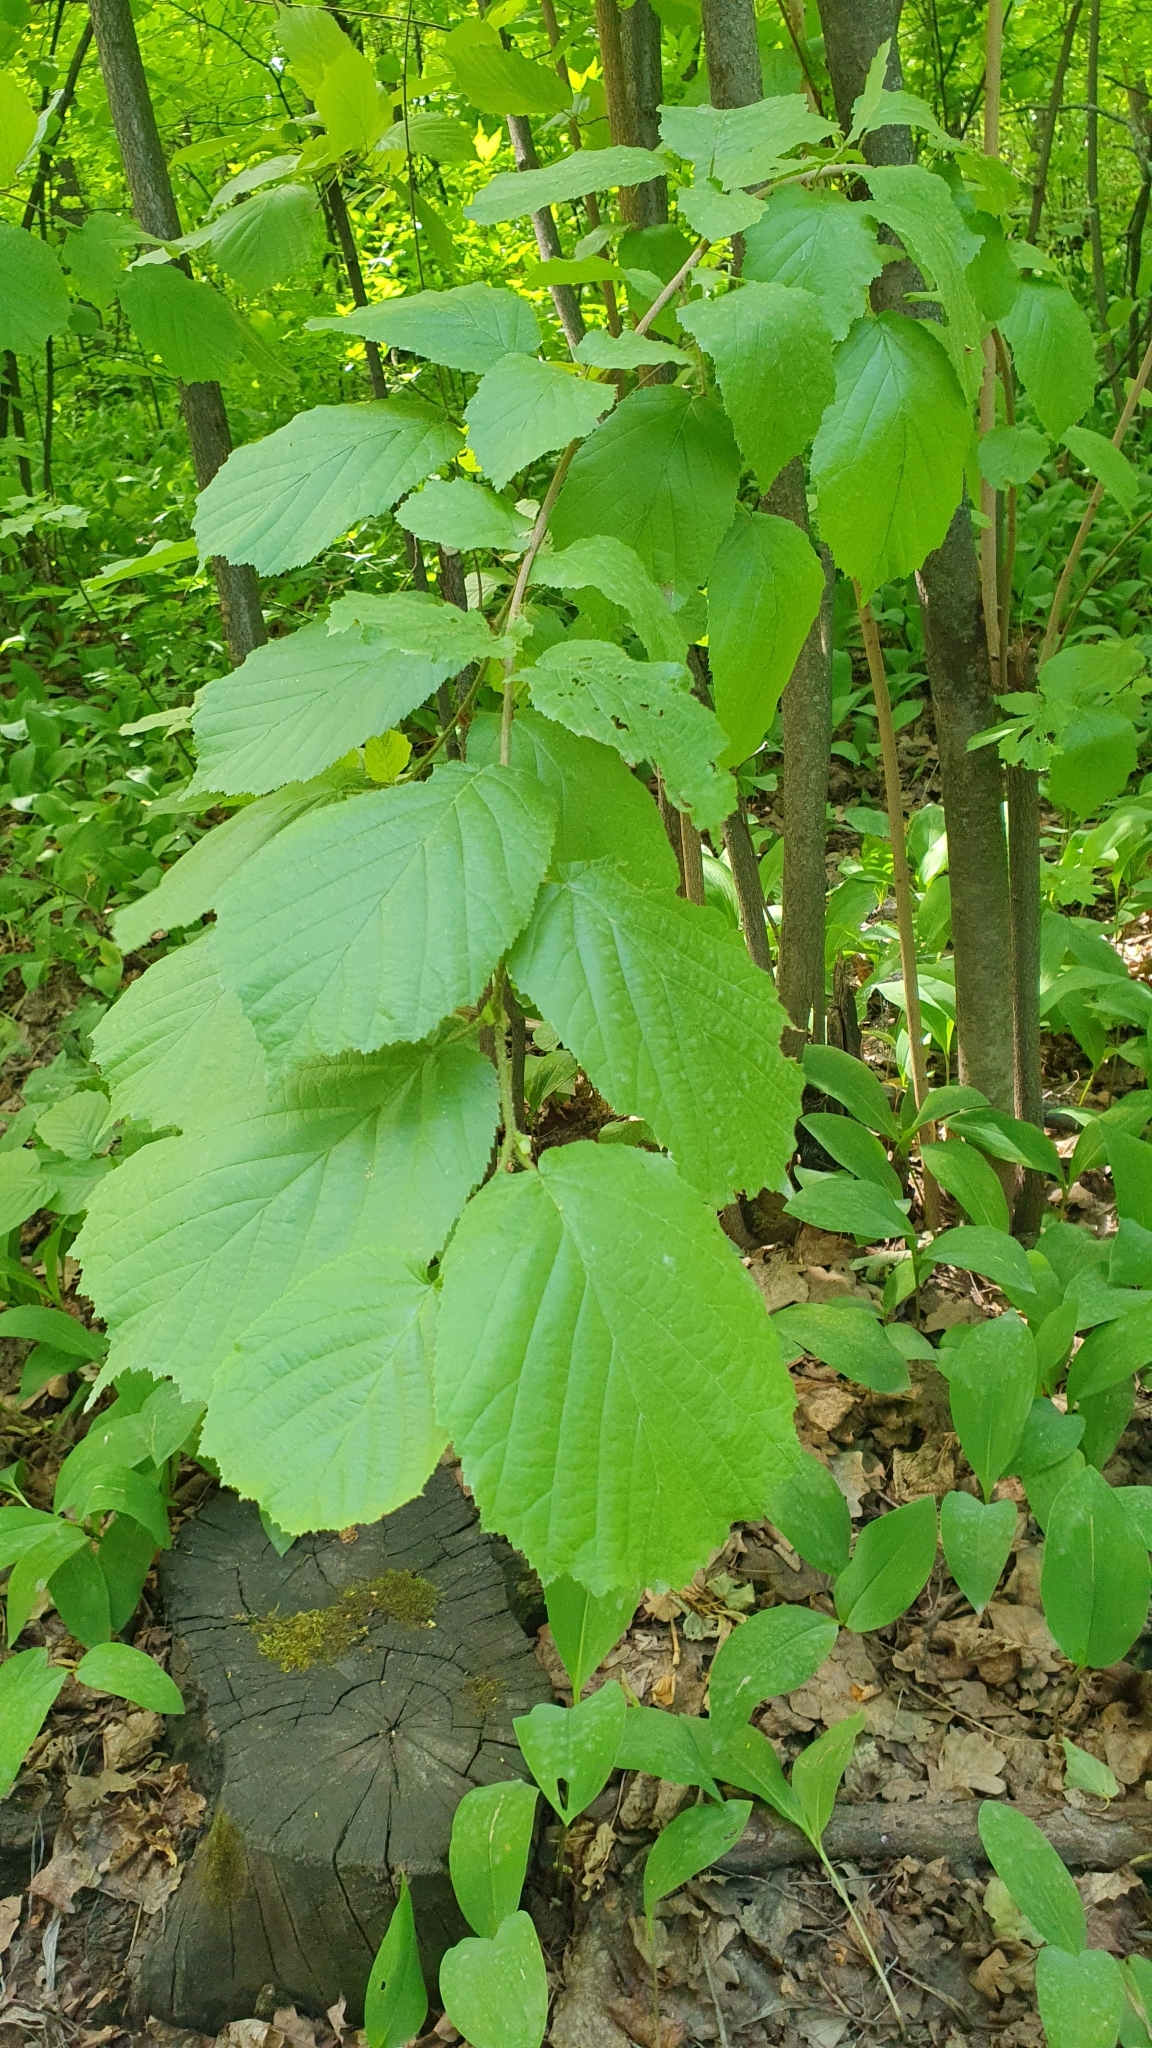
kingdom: Plantae
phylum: Tracheophyta
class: Magnoliopsida
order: Fagales
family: Betulaceae
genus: Corylus
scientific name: Corylus avellana
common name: European hazel
